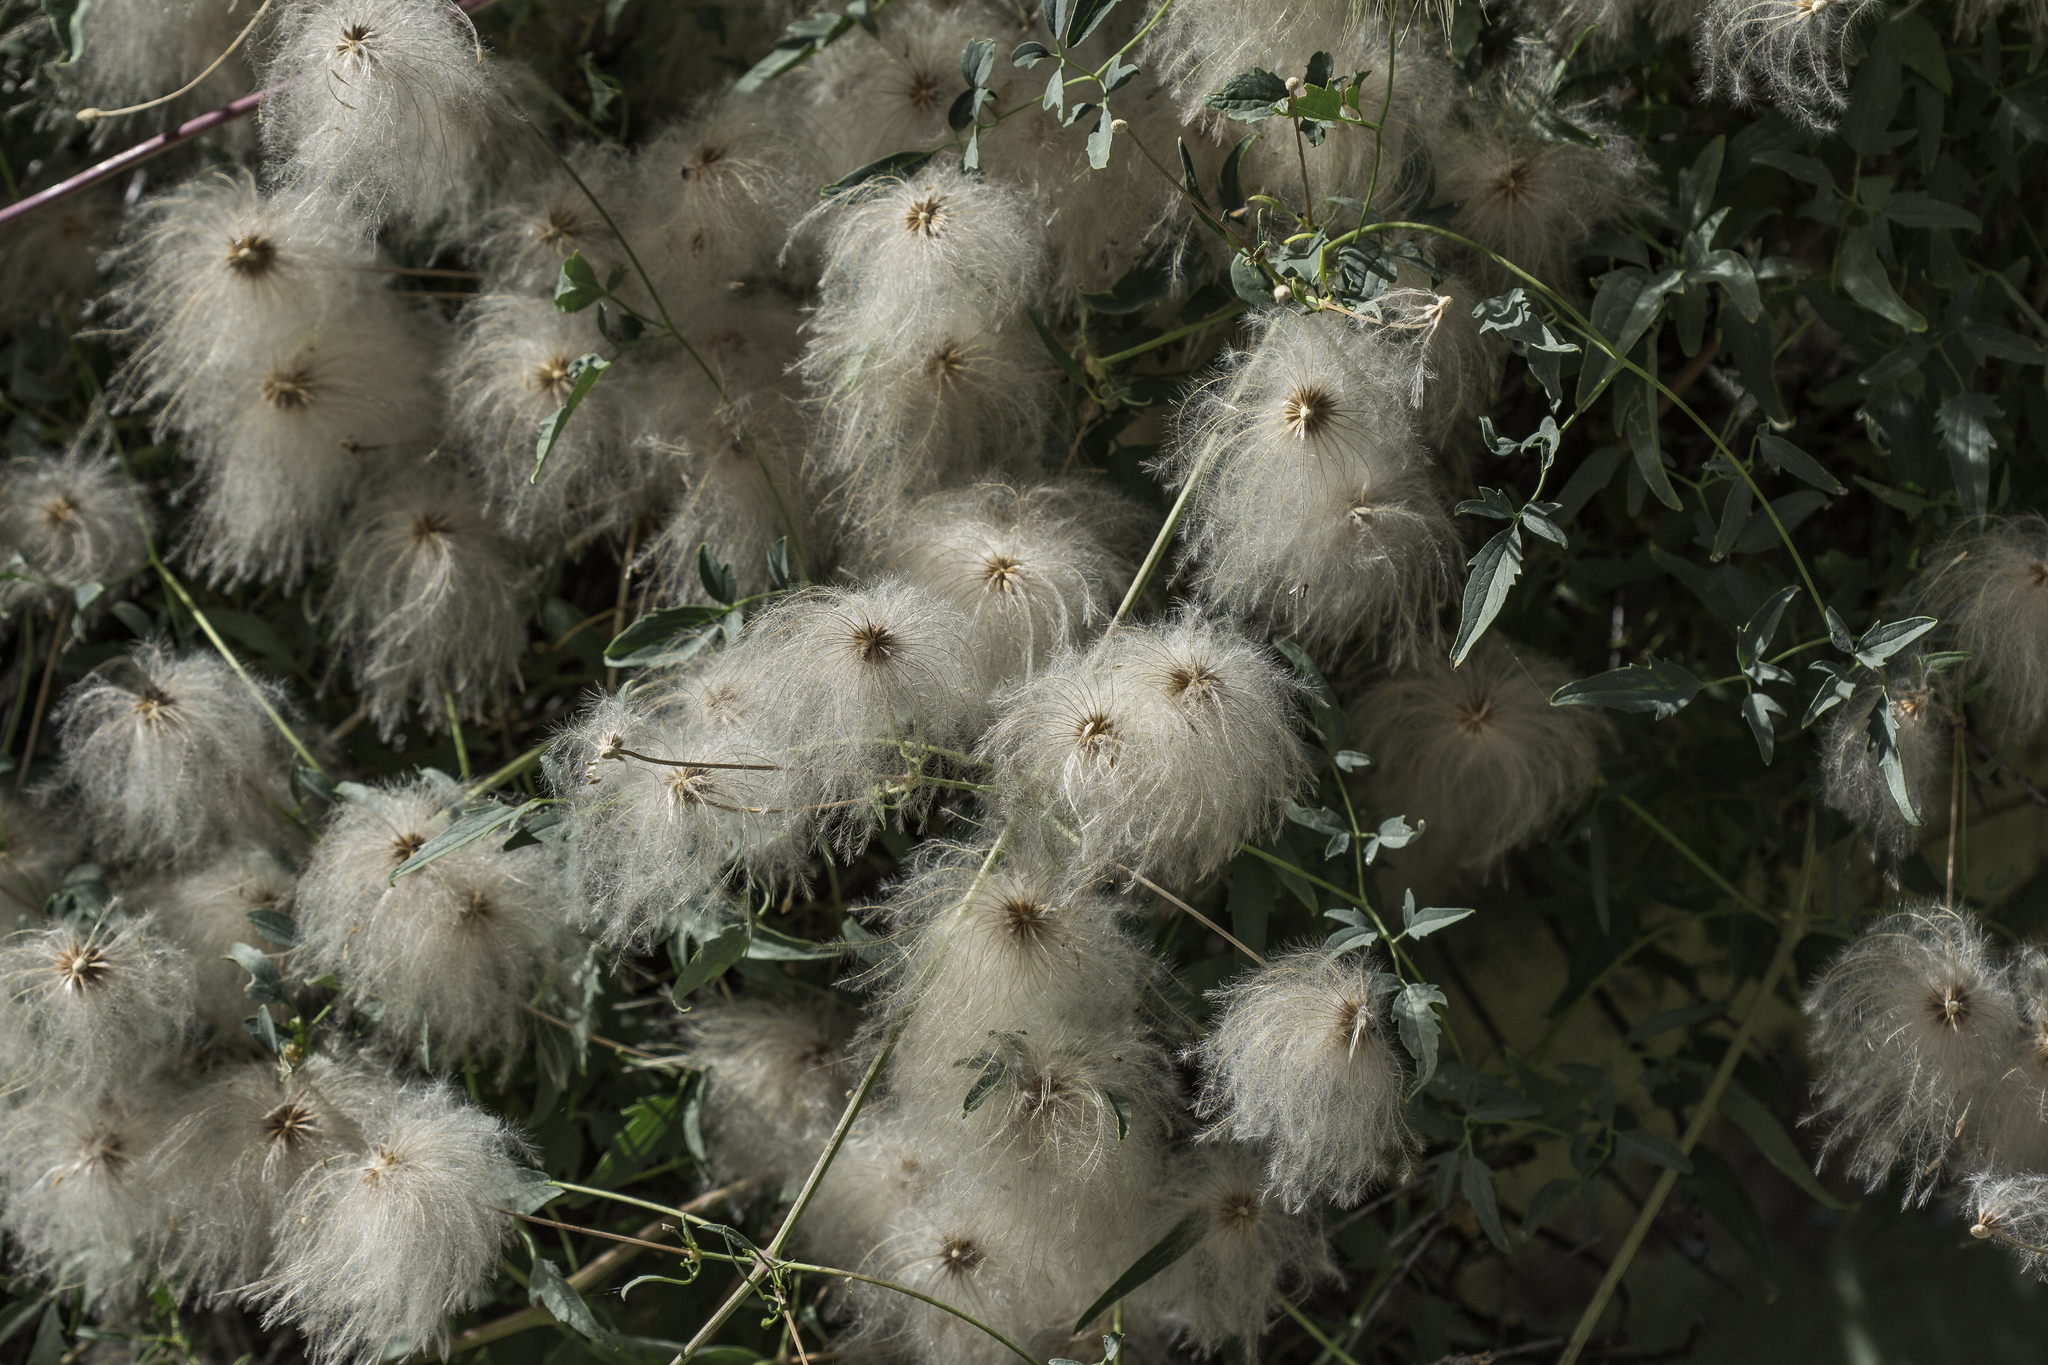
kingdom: Plantae
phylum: Tracheophyta
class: Magnoliopsida
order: Ranunculales
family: Ranunculaceae
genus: Clematis
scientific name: Clematis orientalis
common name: Oriental virgin's-bower
